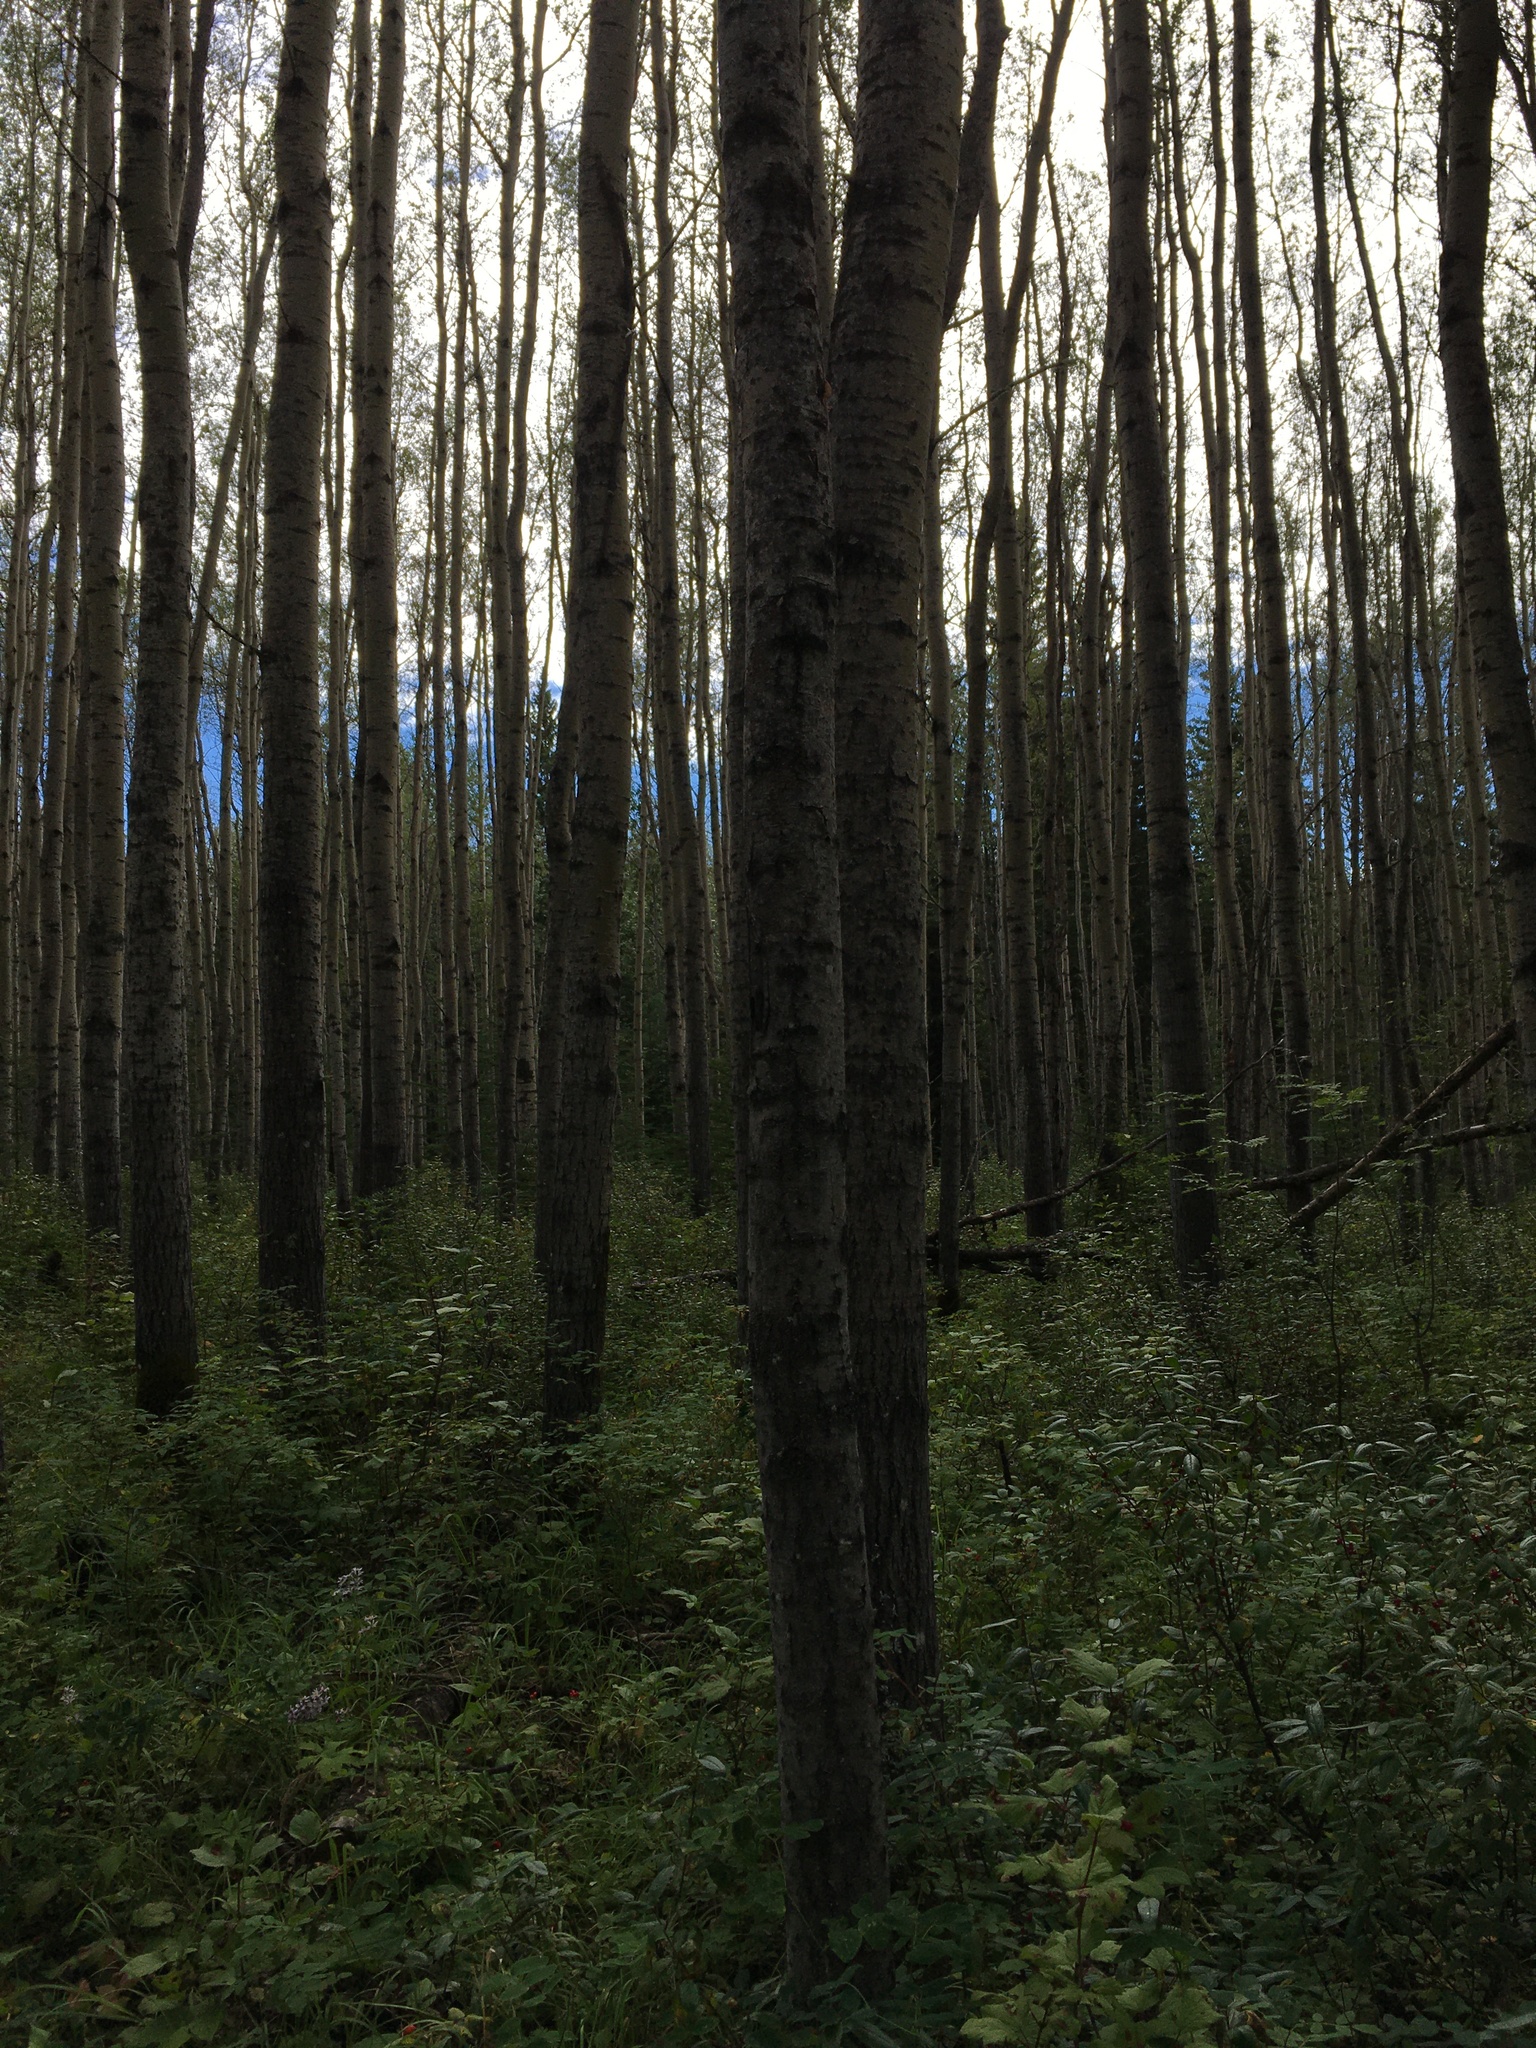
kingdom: Plantae
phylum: Tracheophyta
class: Magnoliopsida
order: Malpighiales
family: Salicaceae
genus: Populus
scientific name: Populus tremuloides
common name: Quaking aspen
